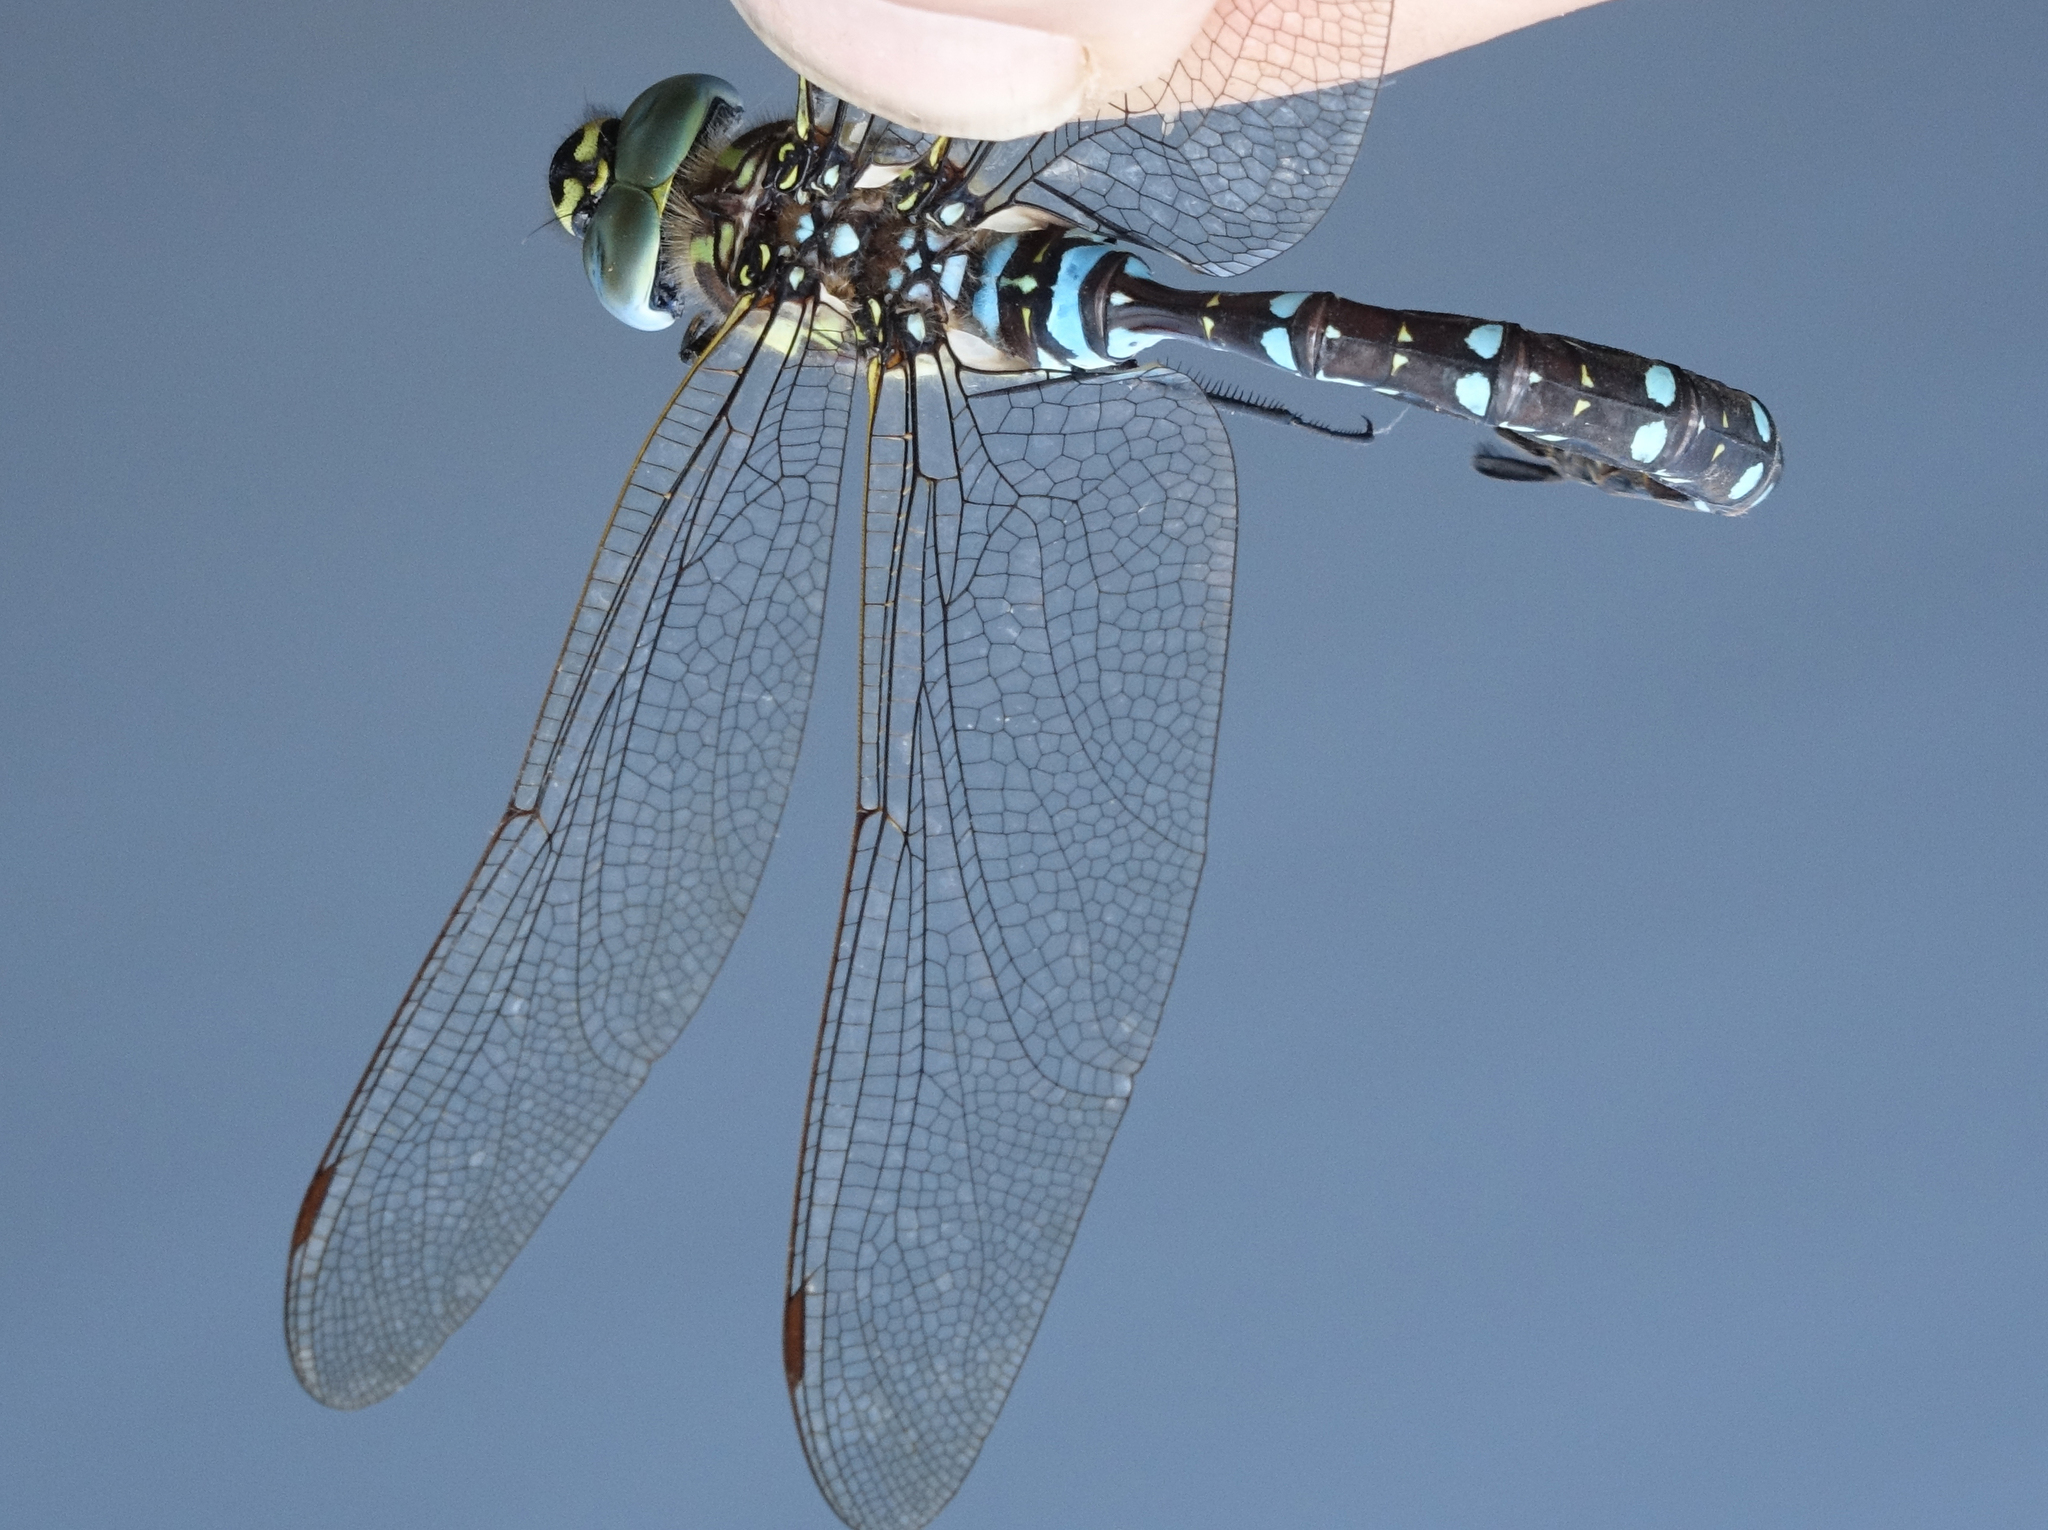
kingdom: Animalia
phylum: Arthropoda
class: Insecta
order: Odonata
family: Aeshnidae
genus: Aeshna
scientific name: Aeshna juncea
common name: Moorland hawker
